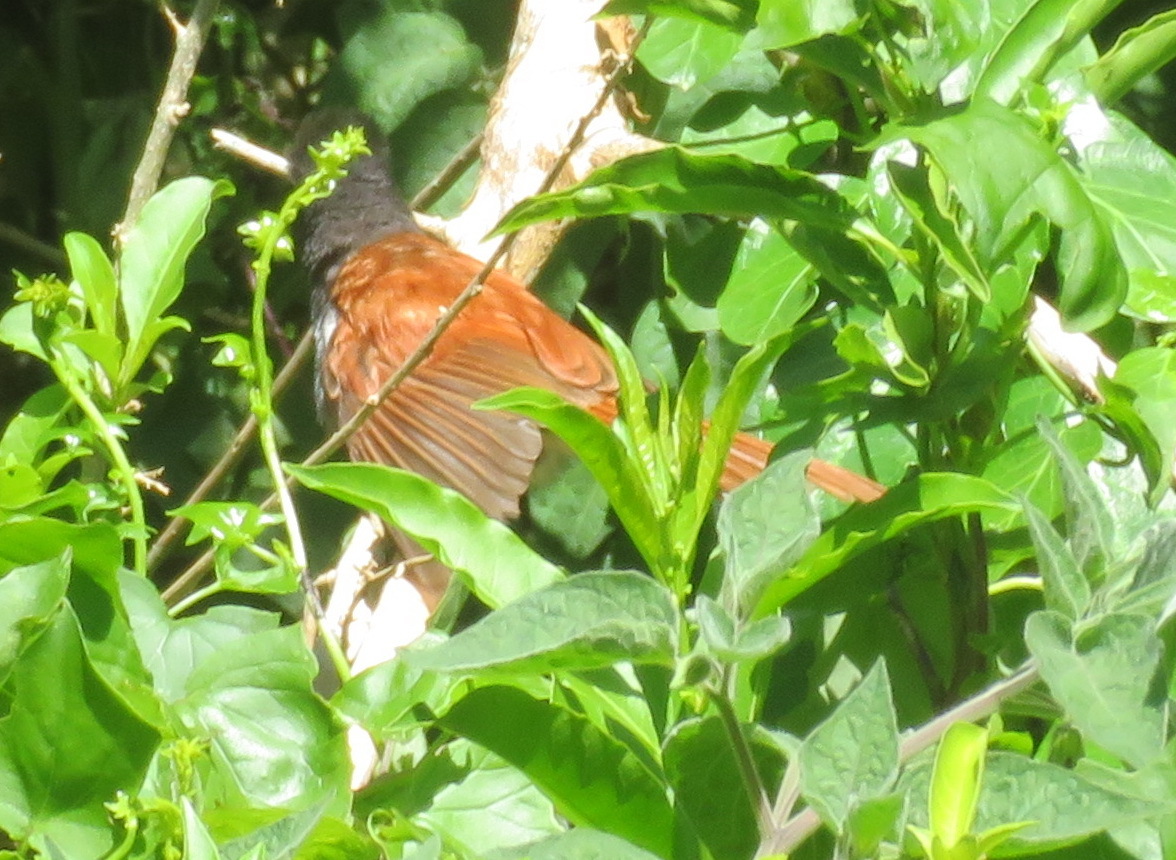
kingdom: Animalia
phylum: Chordata
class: Aves
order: Passeriformes
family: Monarchidae
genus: Terpsiphone
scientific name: Terpsiphone viridis
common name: African paradise flycatcher
